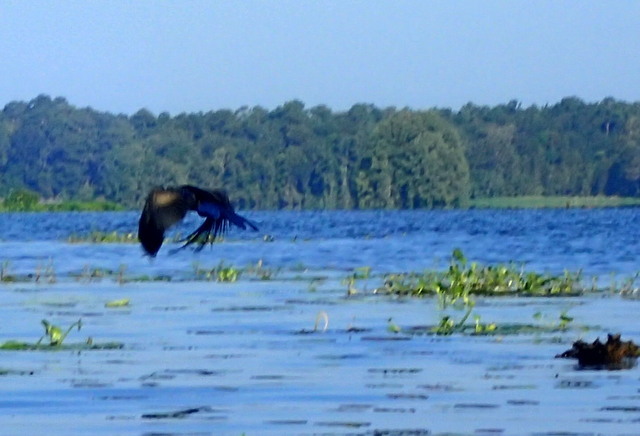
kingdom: Animalia
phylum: Chordata
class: Aves
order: Suliformes
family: Anhingidae
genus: Anhinga
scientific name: Anhinga anhinga
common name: Anhinga
